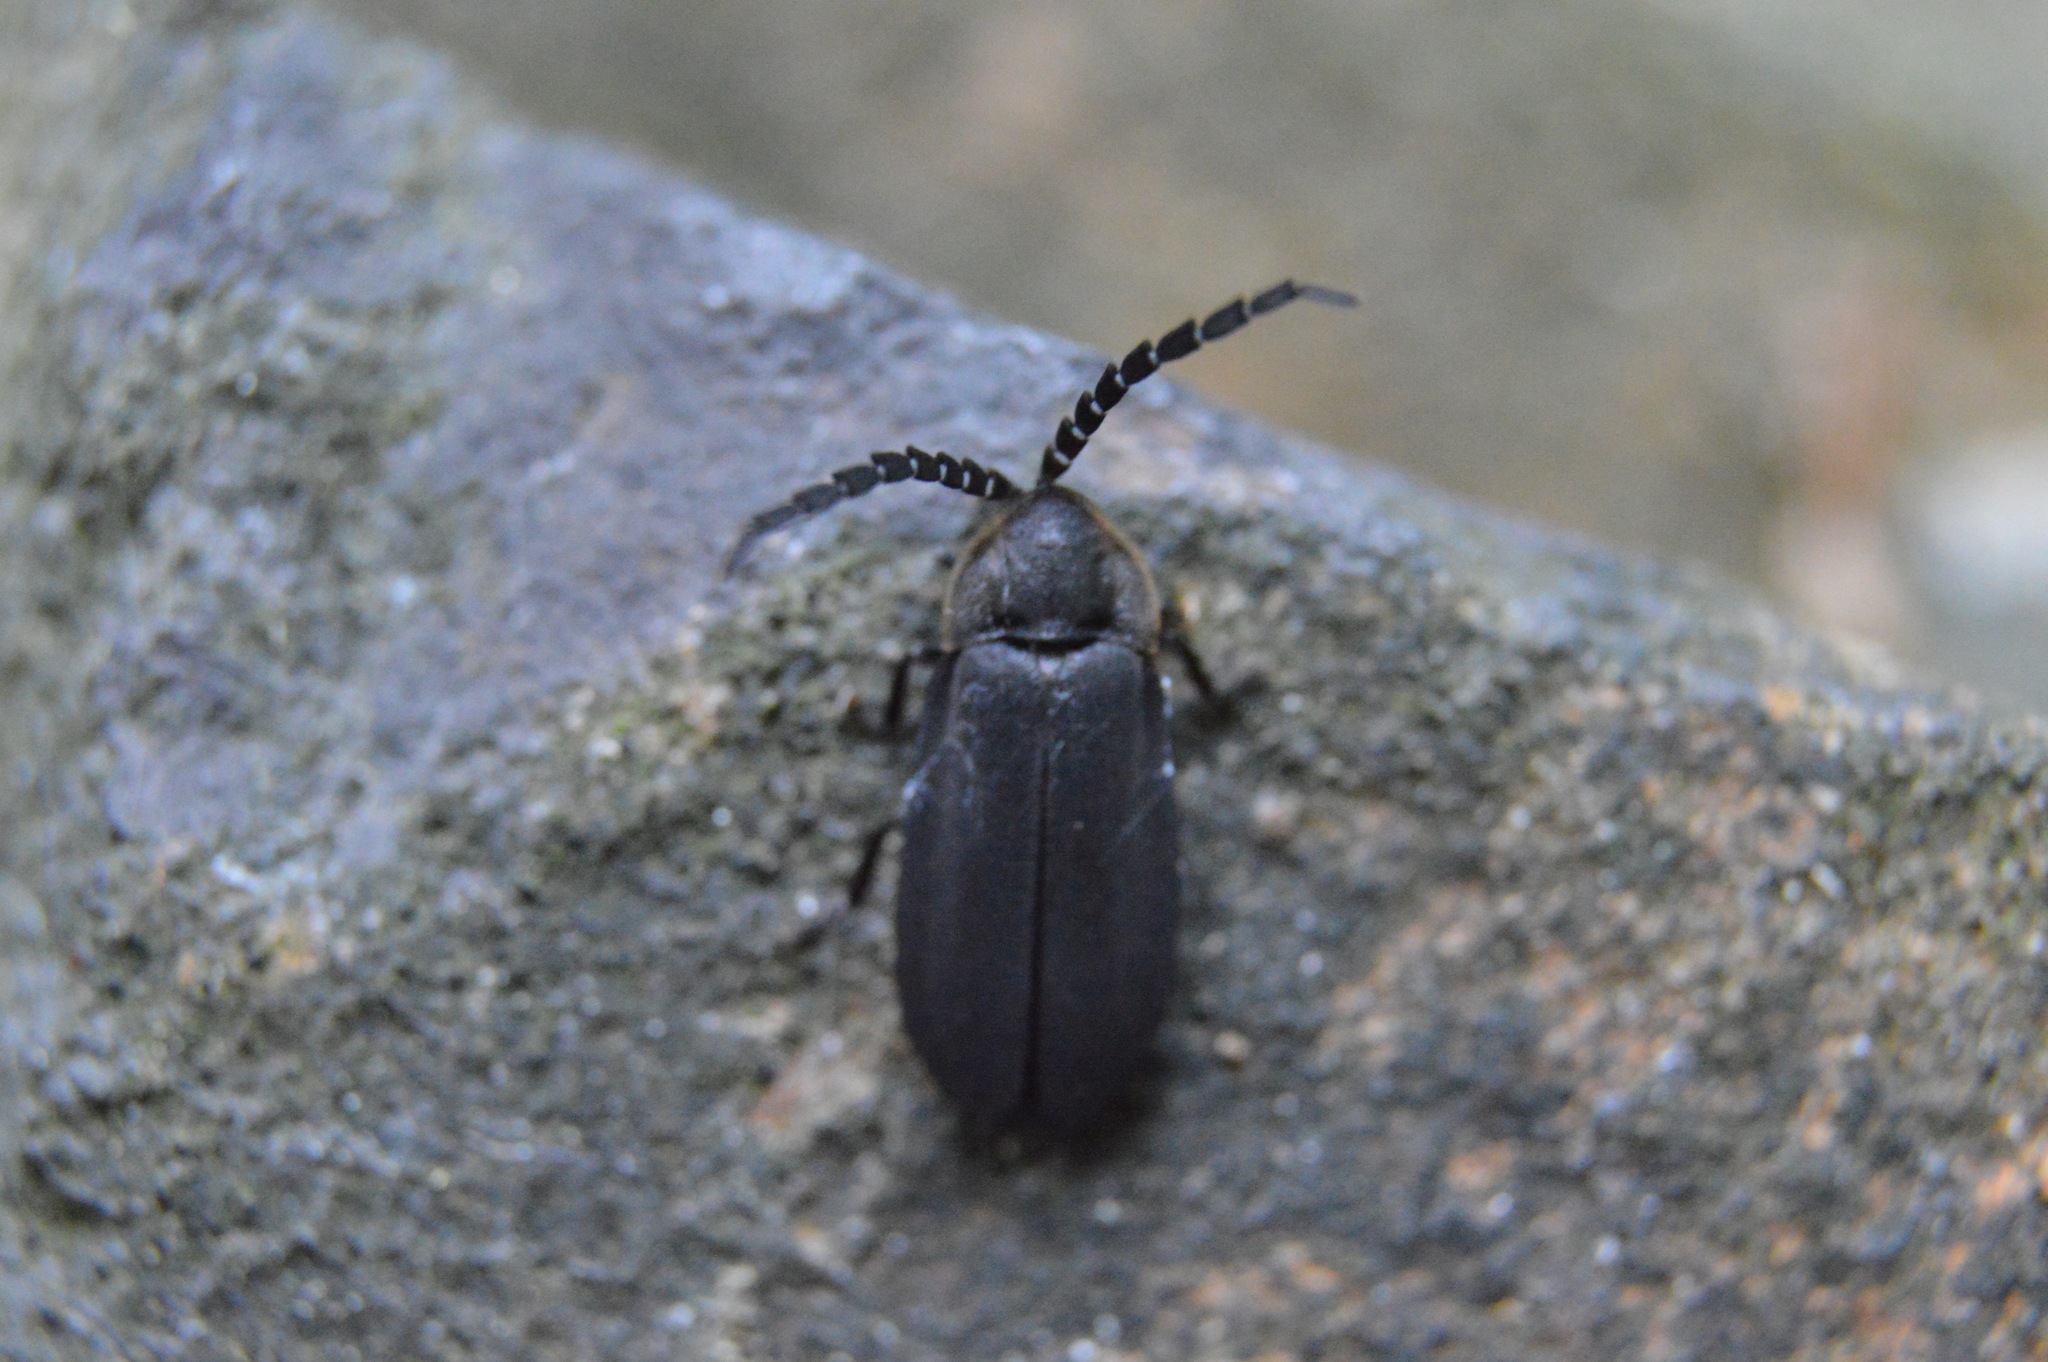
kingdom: Animalia
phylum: Arthropoda
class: Insecta
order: Coleoptera
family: Lampyridae
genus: Lucidota
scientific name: Lucidota atra
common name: Black firefly
